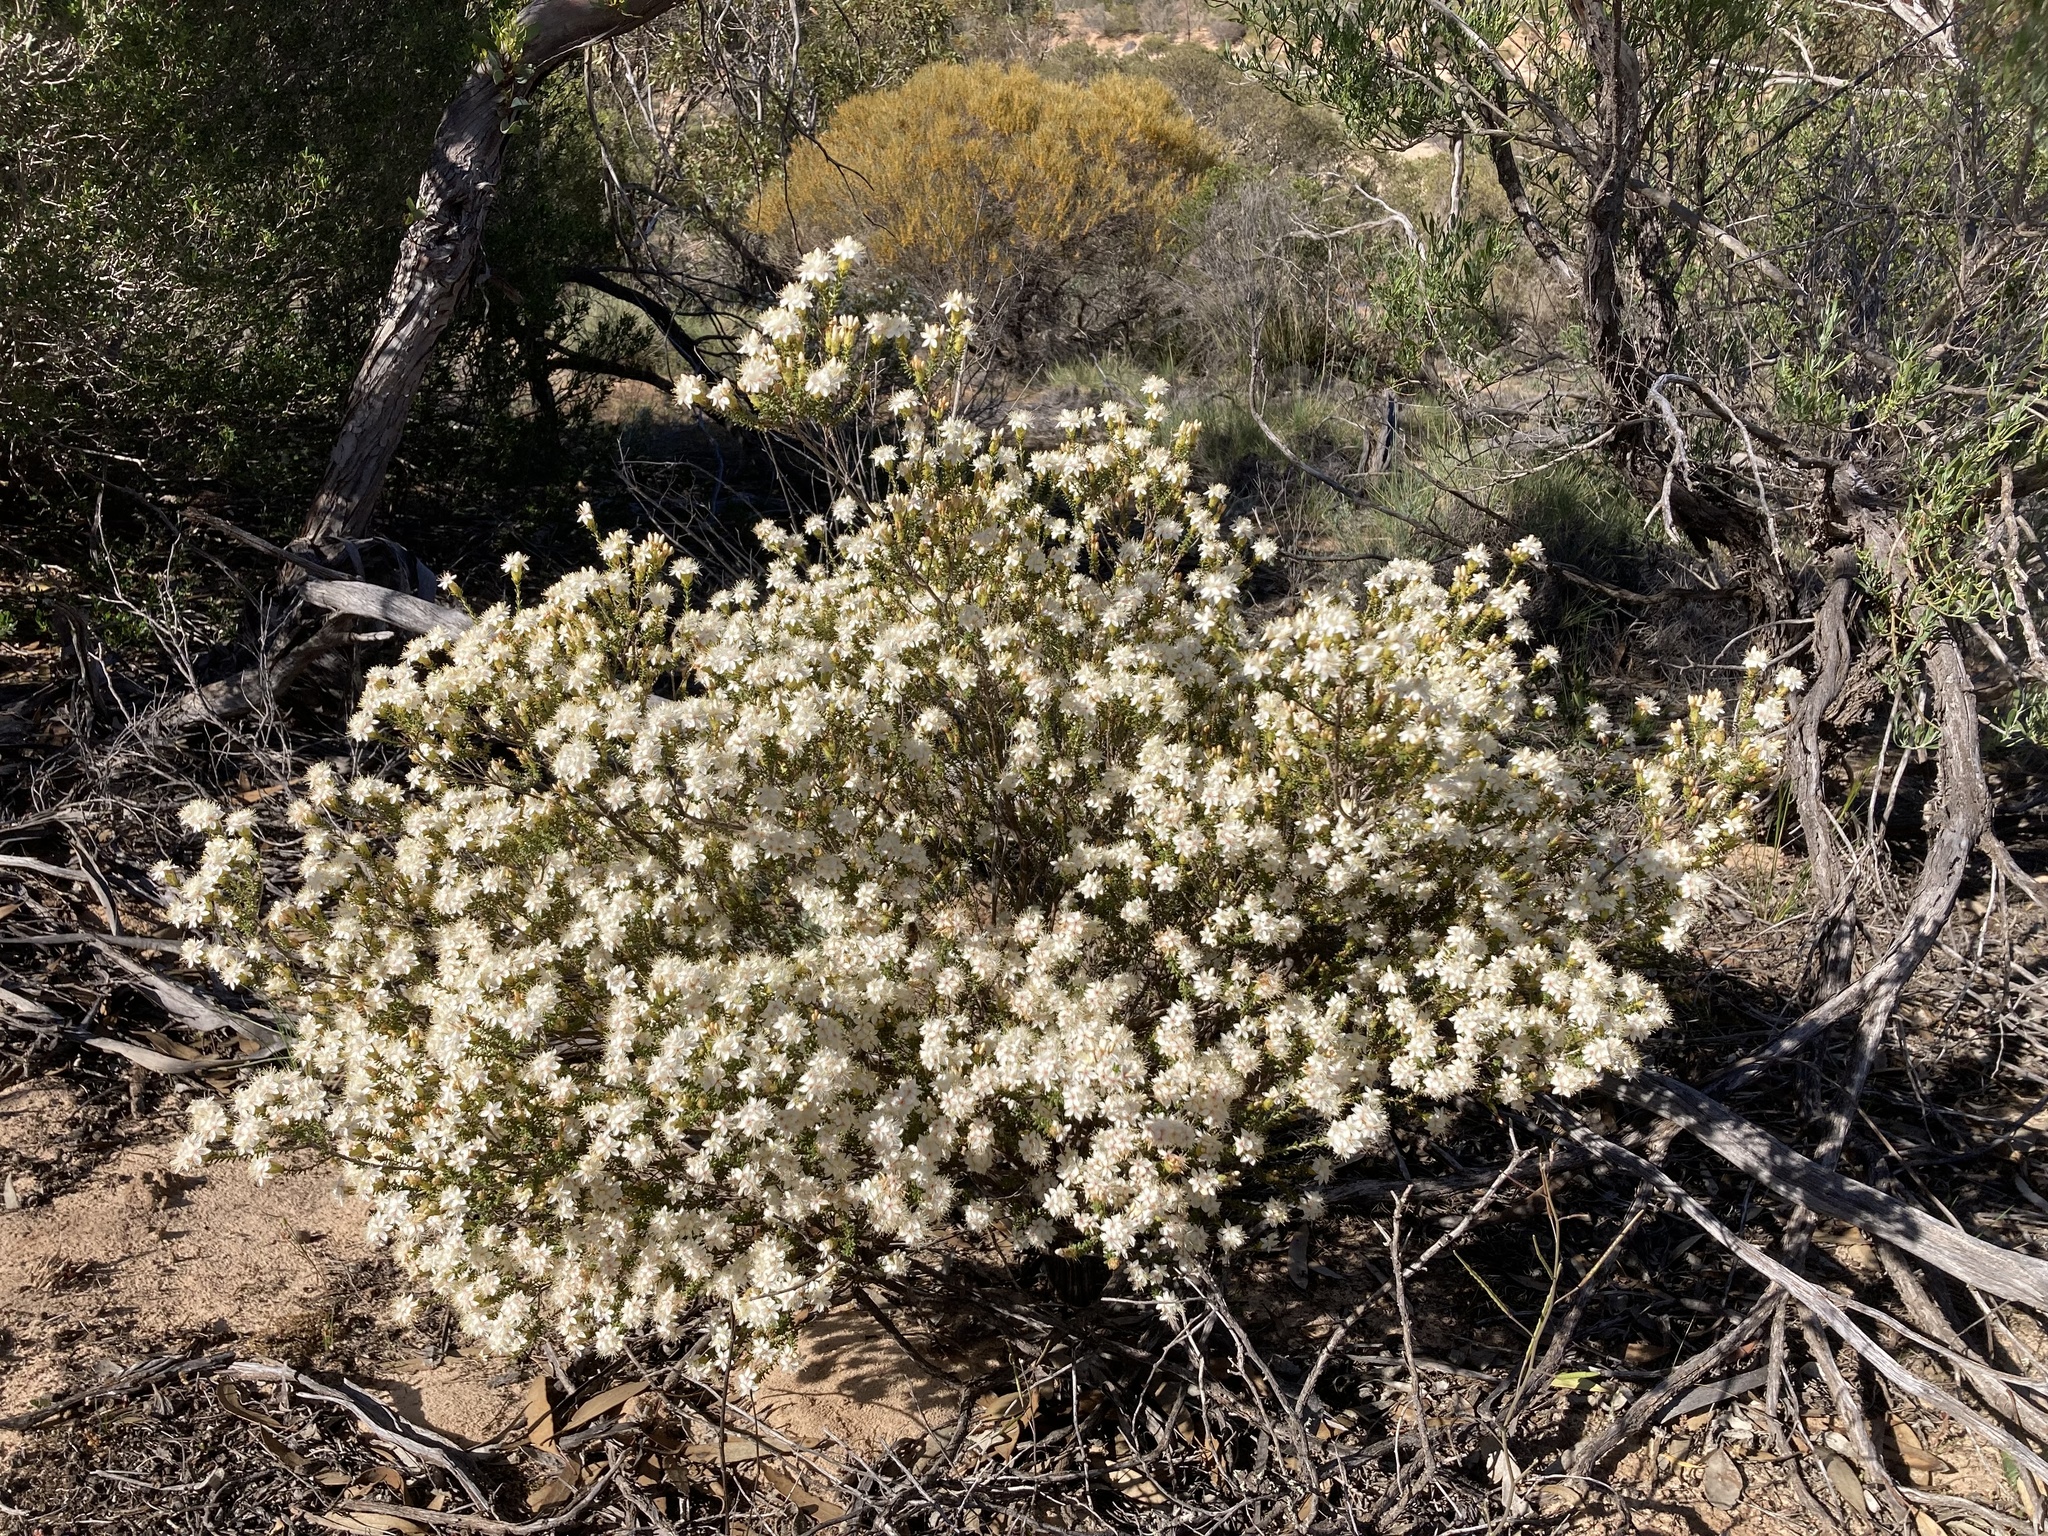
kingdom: Plantae
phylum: Tracheophyta
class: Magnoliopsida
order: Myrtales
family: Myrtaceae
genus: Calytrix
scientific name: Calytrix involucrata
